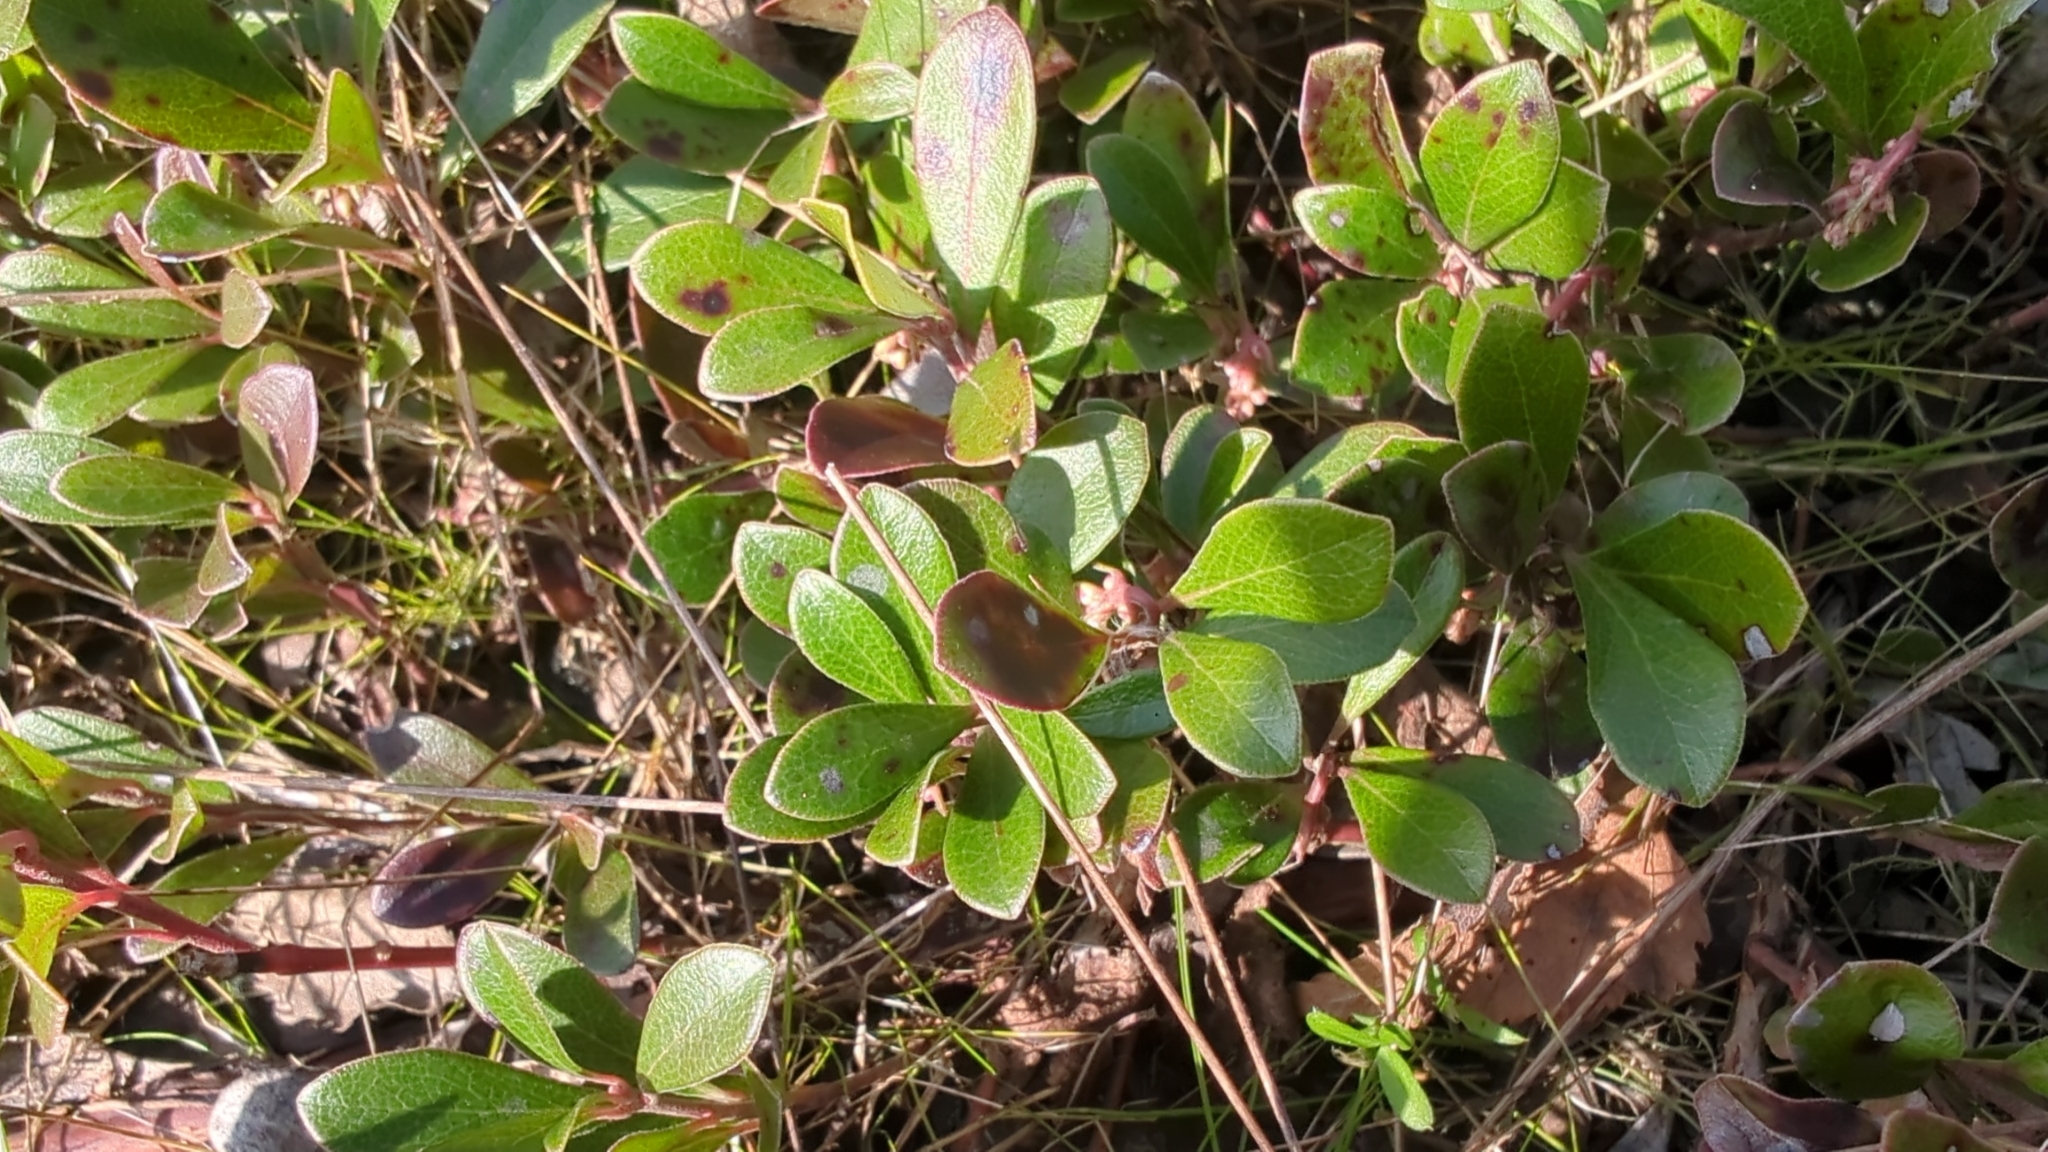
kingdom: Plantae
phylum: Tracheophyta
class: Magnoliopsida
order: Ericales
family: Ericaceae
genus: Arctostaphylos
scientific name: Arctostaphylos uva-ursi
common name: Bearberry
